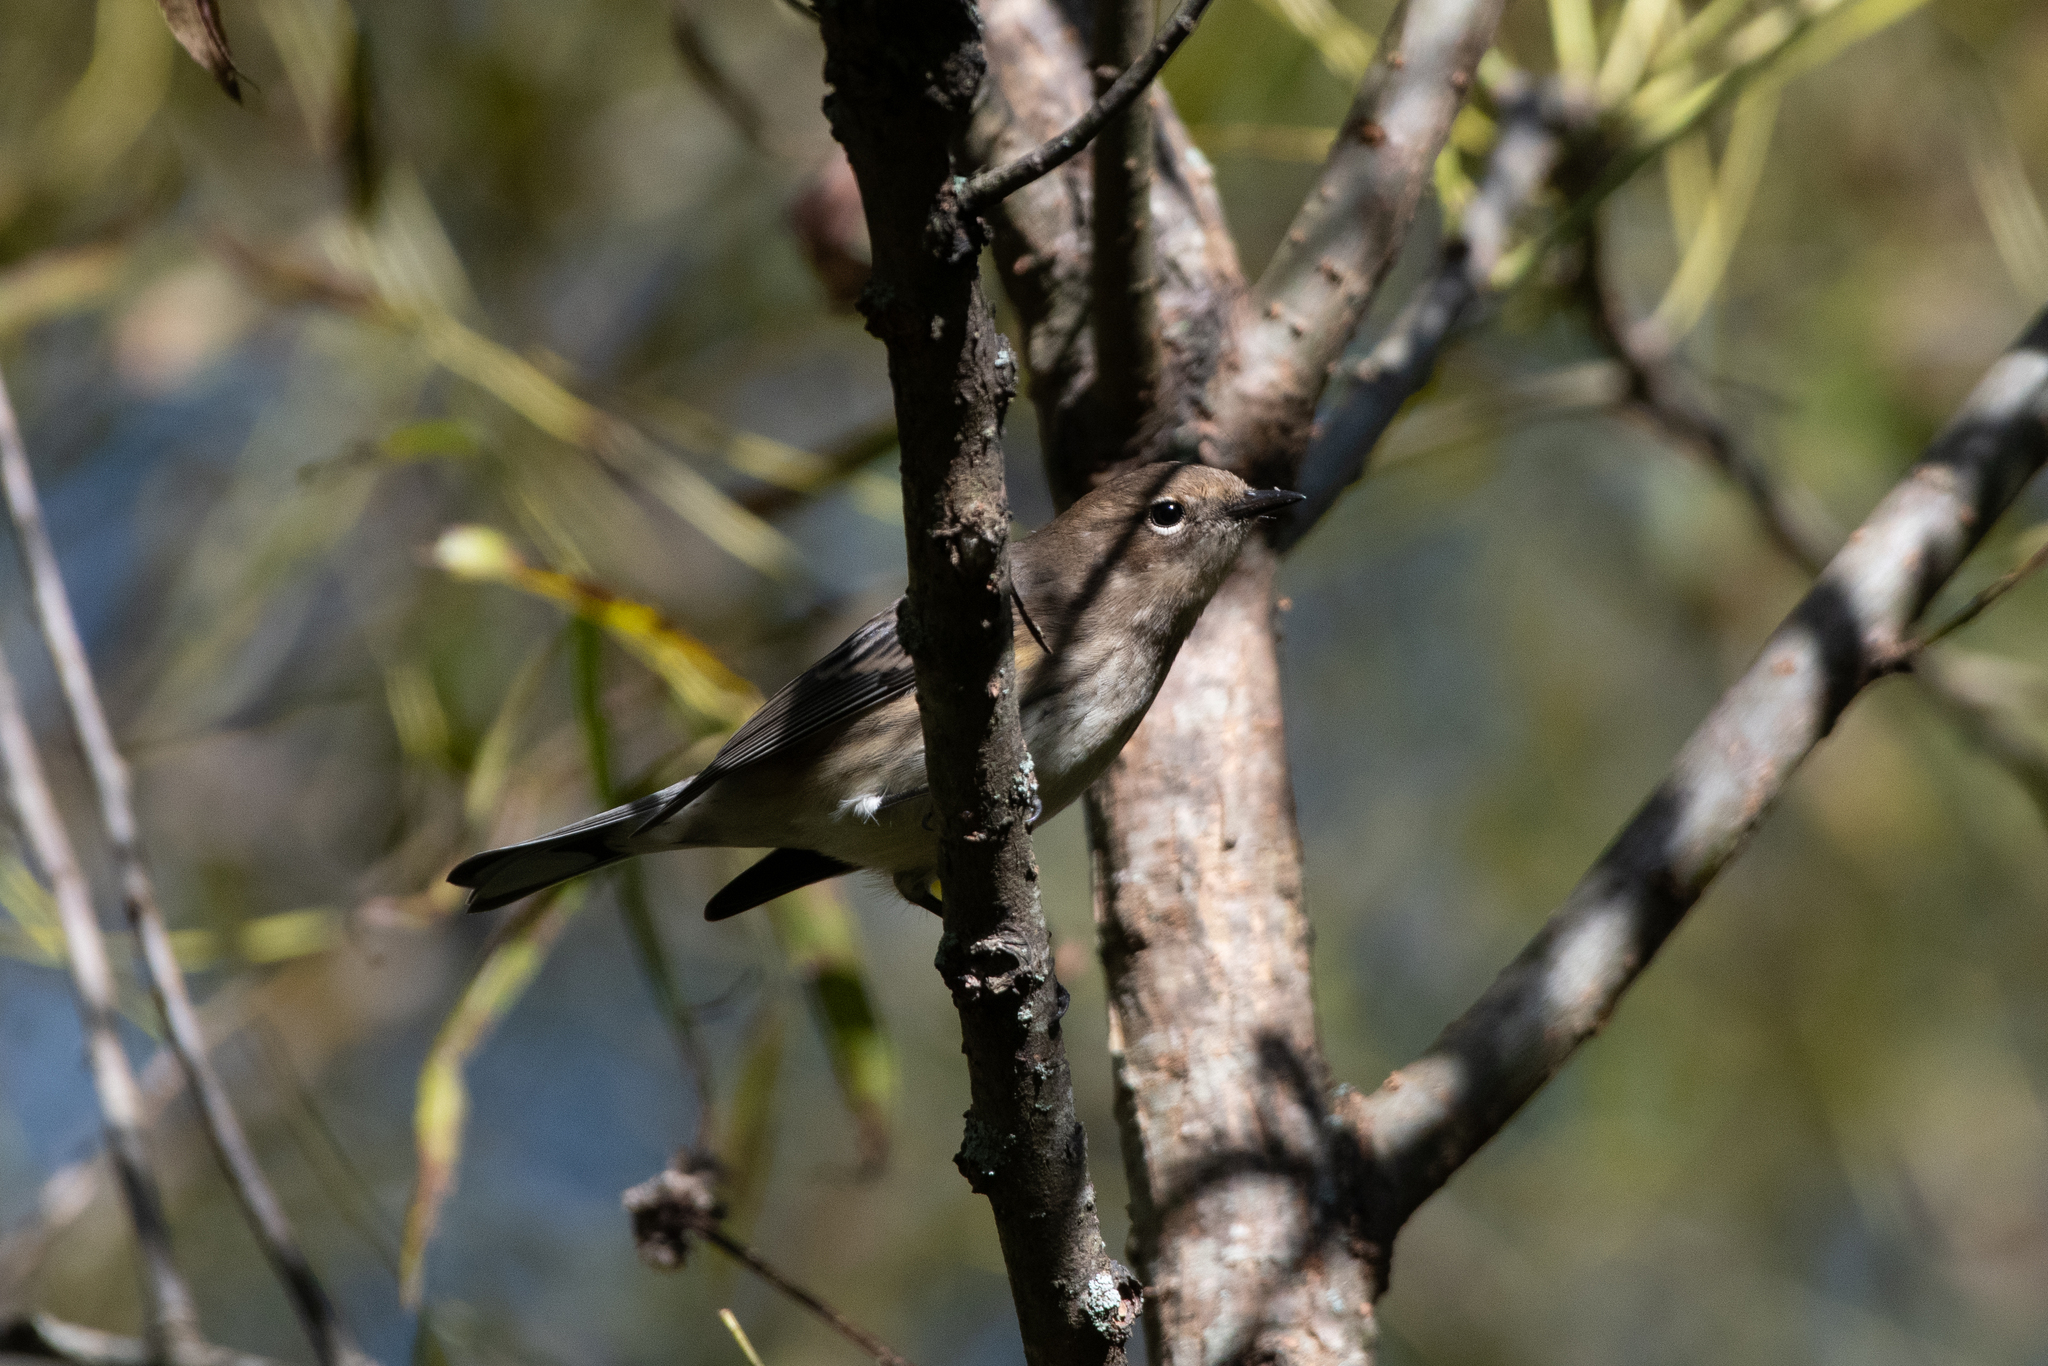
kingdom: Animalia
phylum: Chordata
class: Aves
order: Passeriformes
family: Parulidae
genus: Setophaga
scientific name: Setophaga coronata
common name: Myrtle warbler
